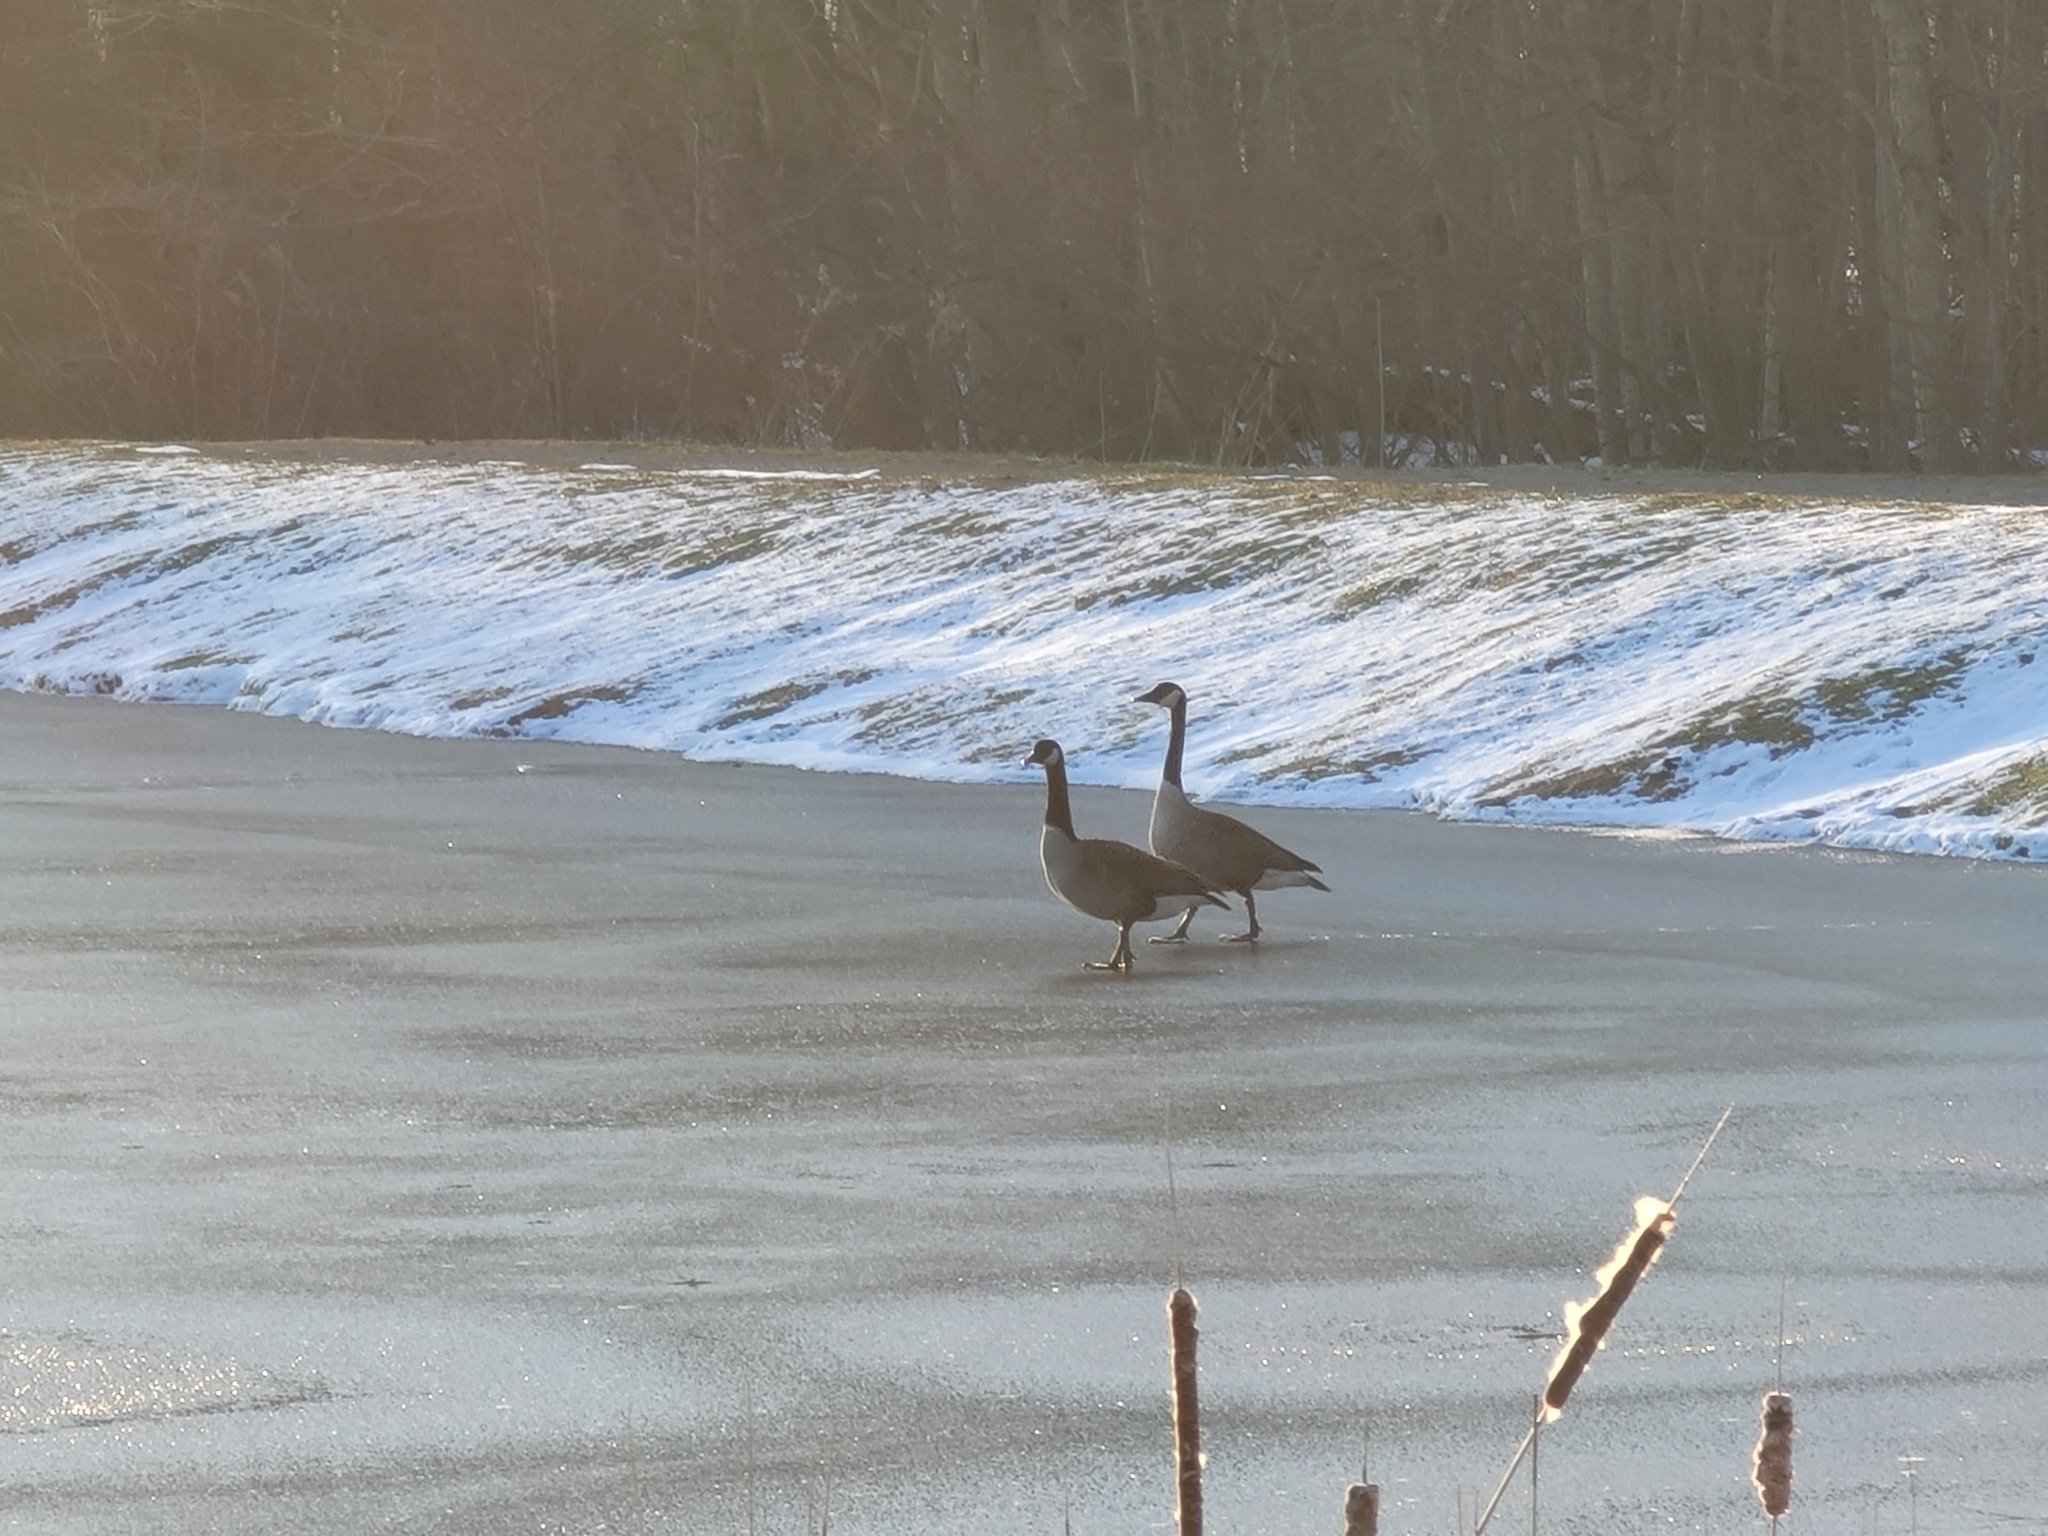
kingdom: Animalia
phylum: Chordata
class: Aves
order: Anseriformes
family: Anatidae
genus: Branta
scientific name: Branta canadensis
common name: Canada goose
